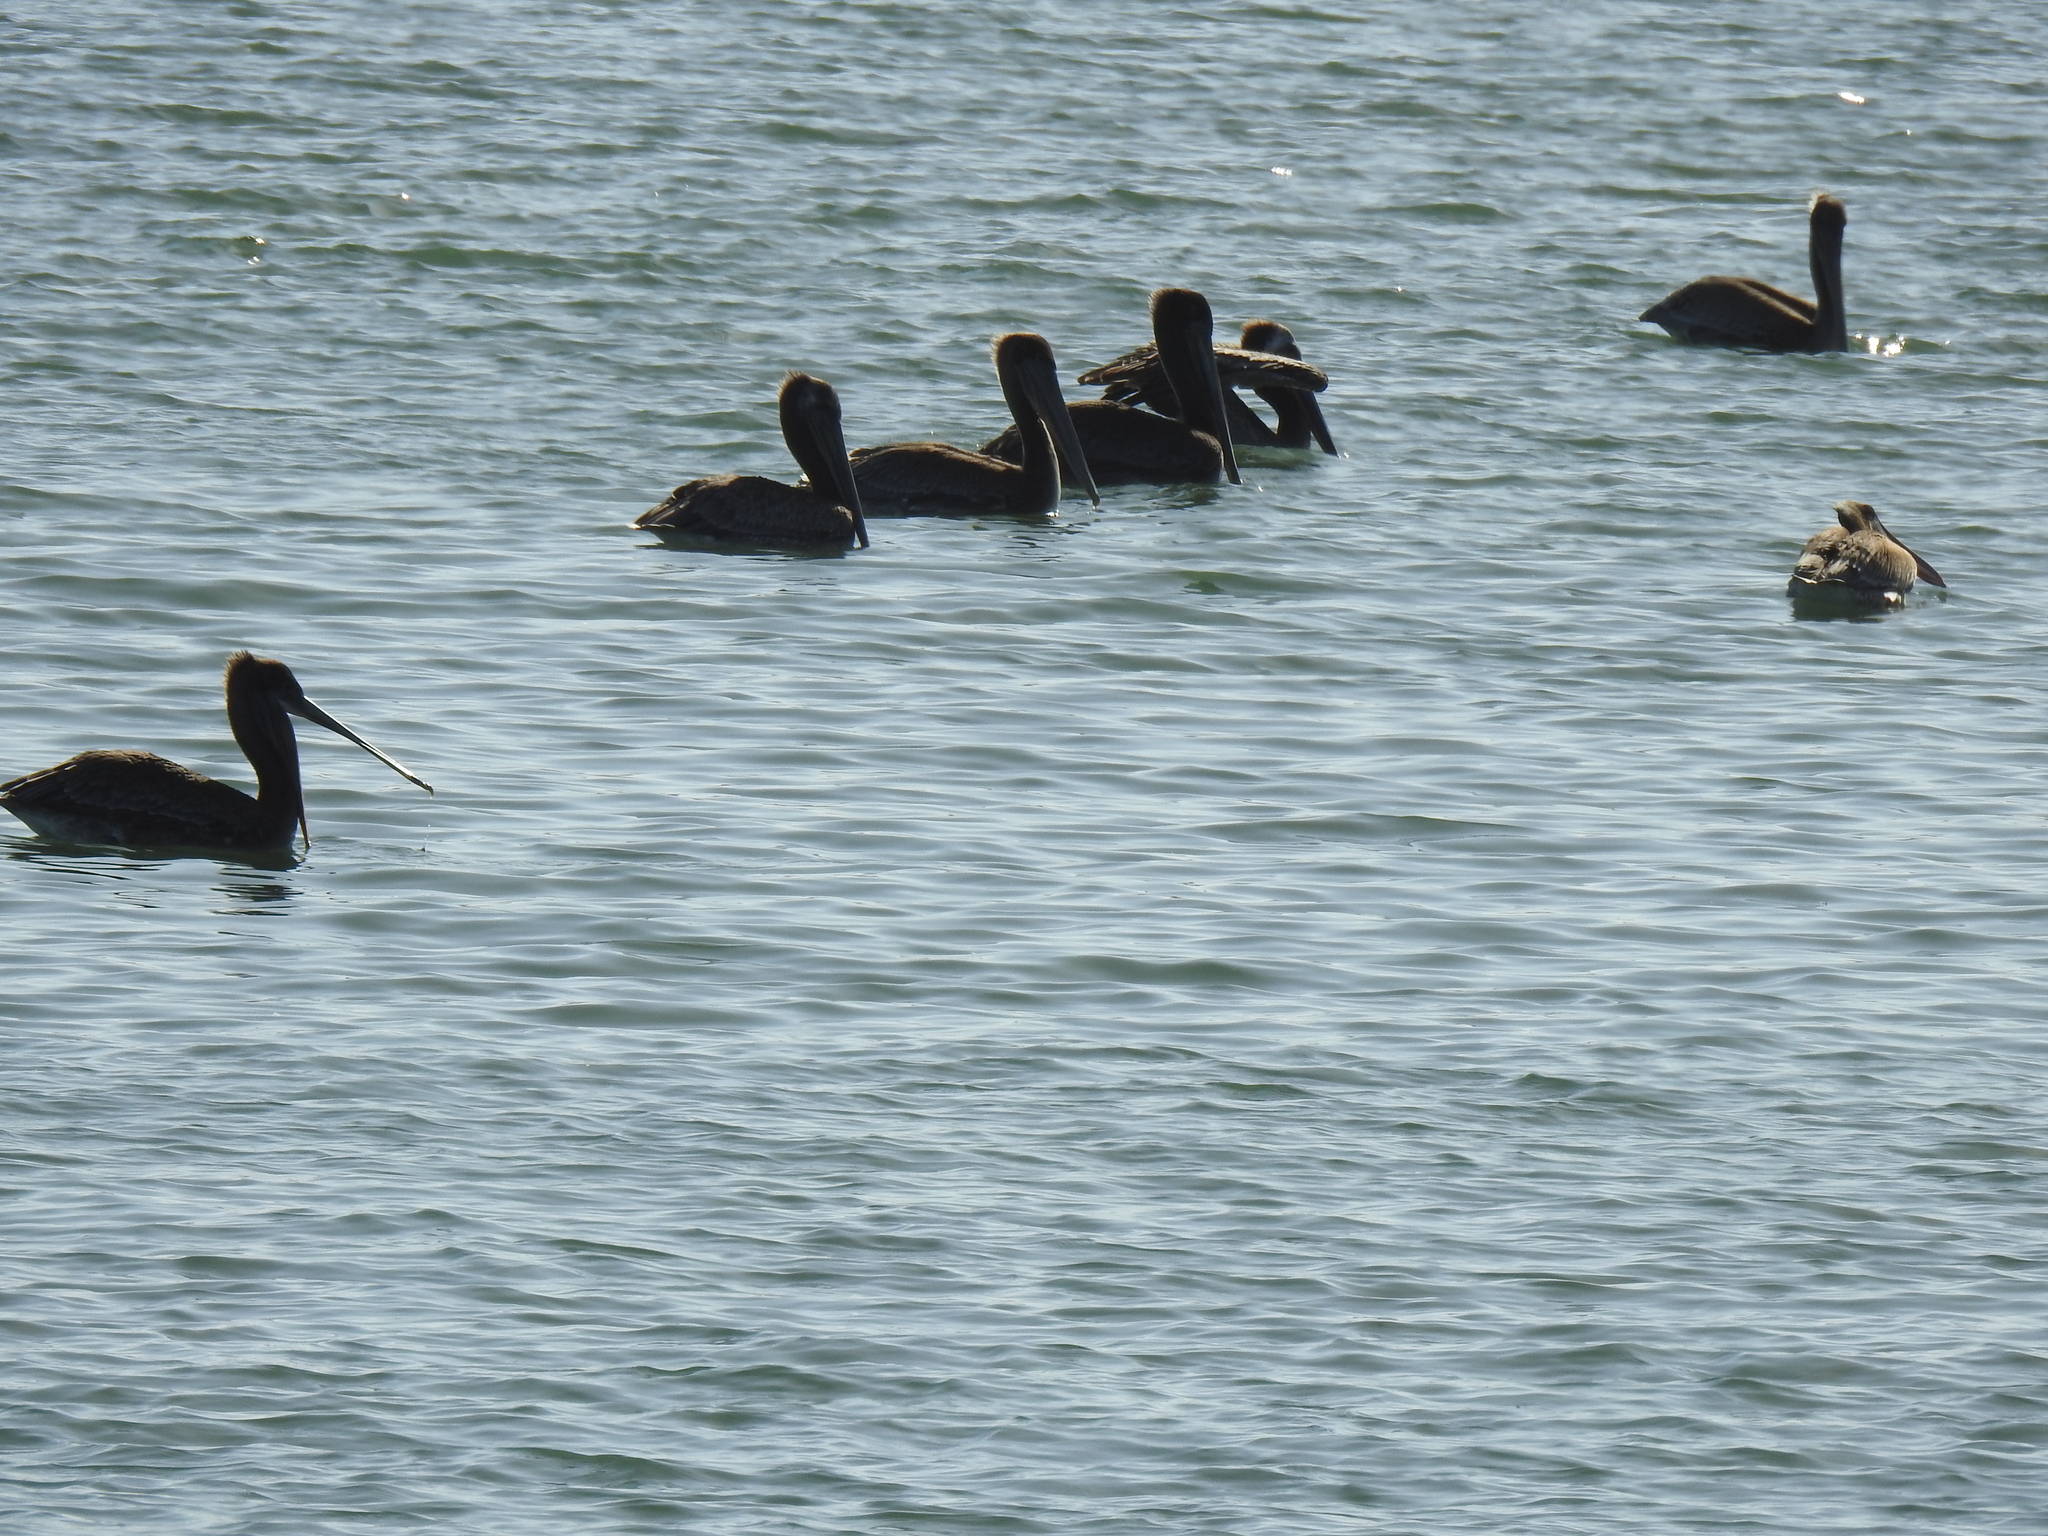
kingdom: Animalia
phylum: Chordata
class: Aves
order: Pelecaniformes
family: Pelecanidae
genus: Pelecanus
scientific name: Pelecanus occidentalis
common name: Brown pelican
